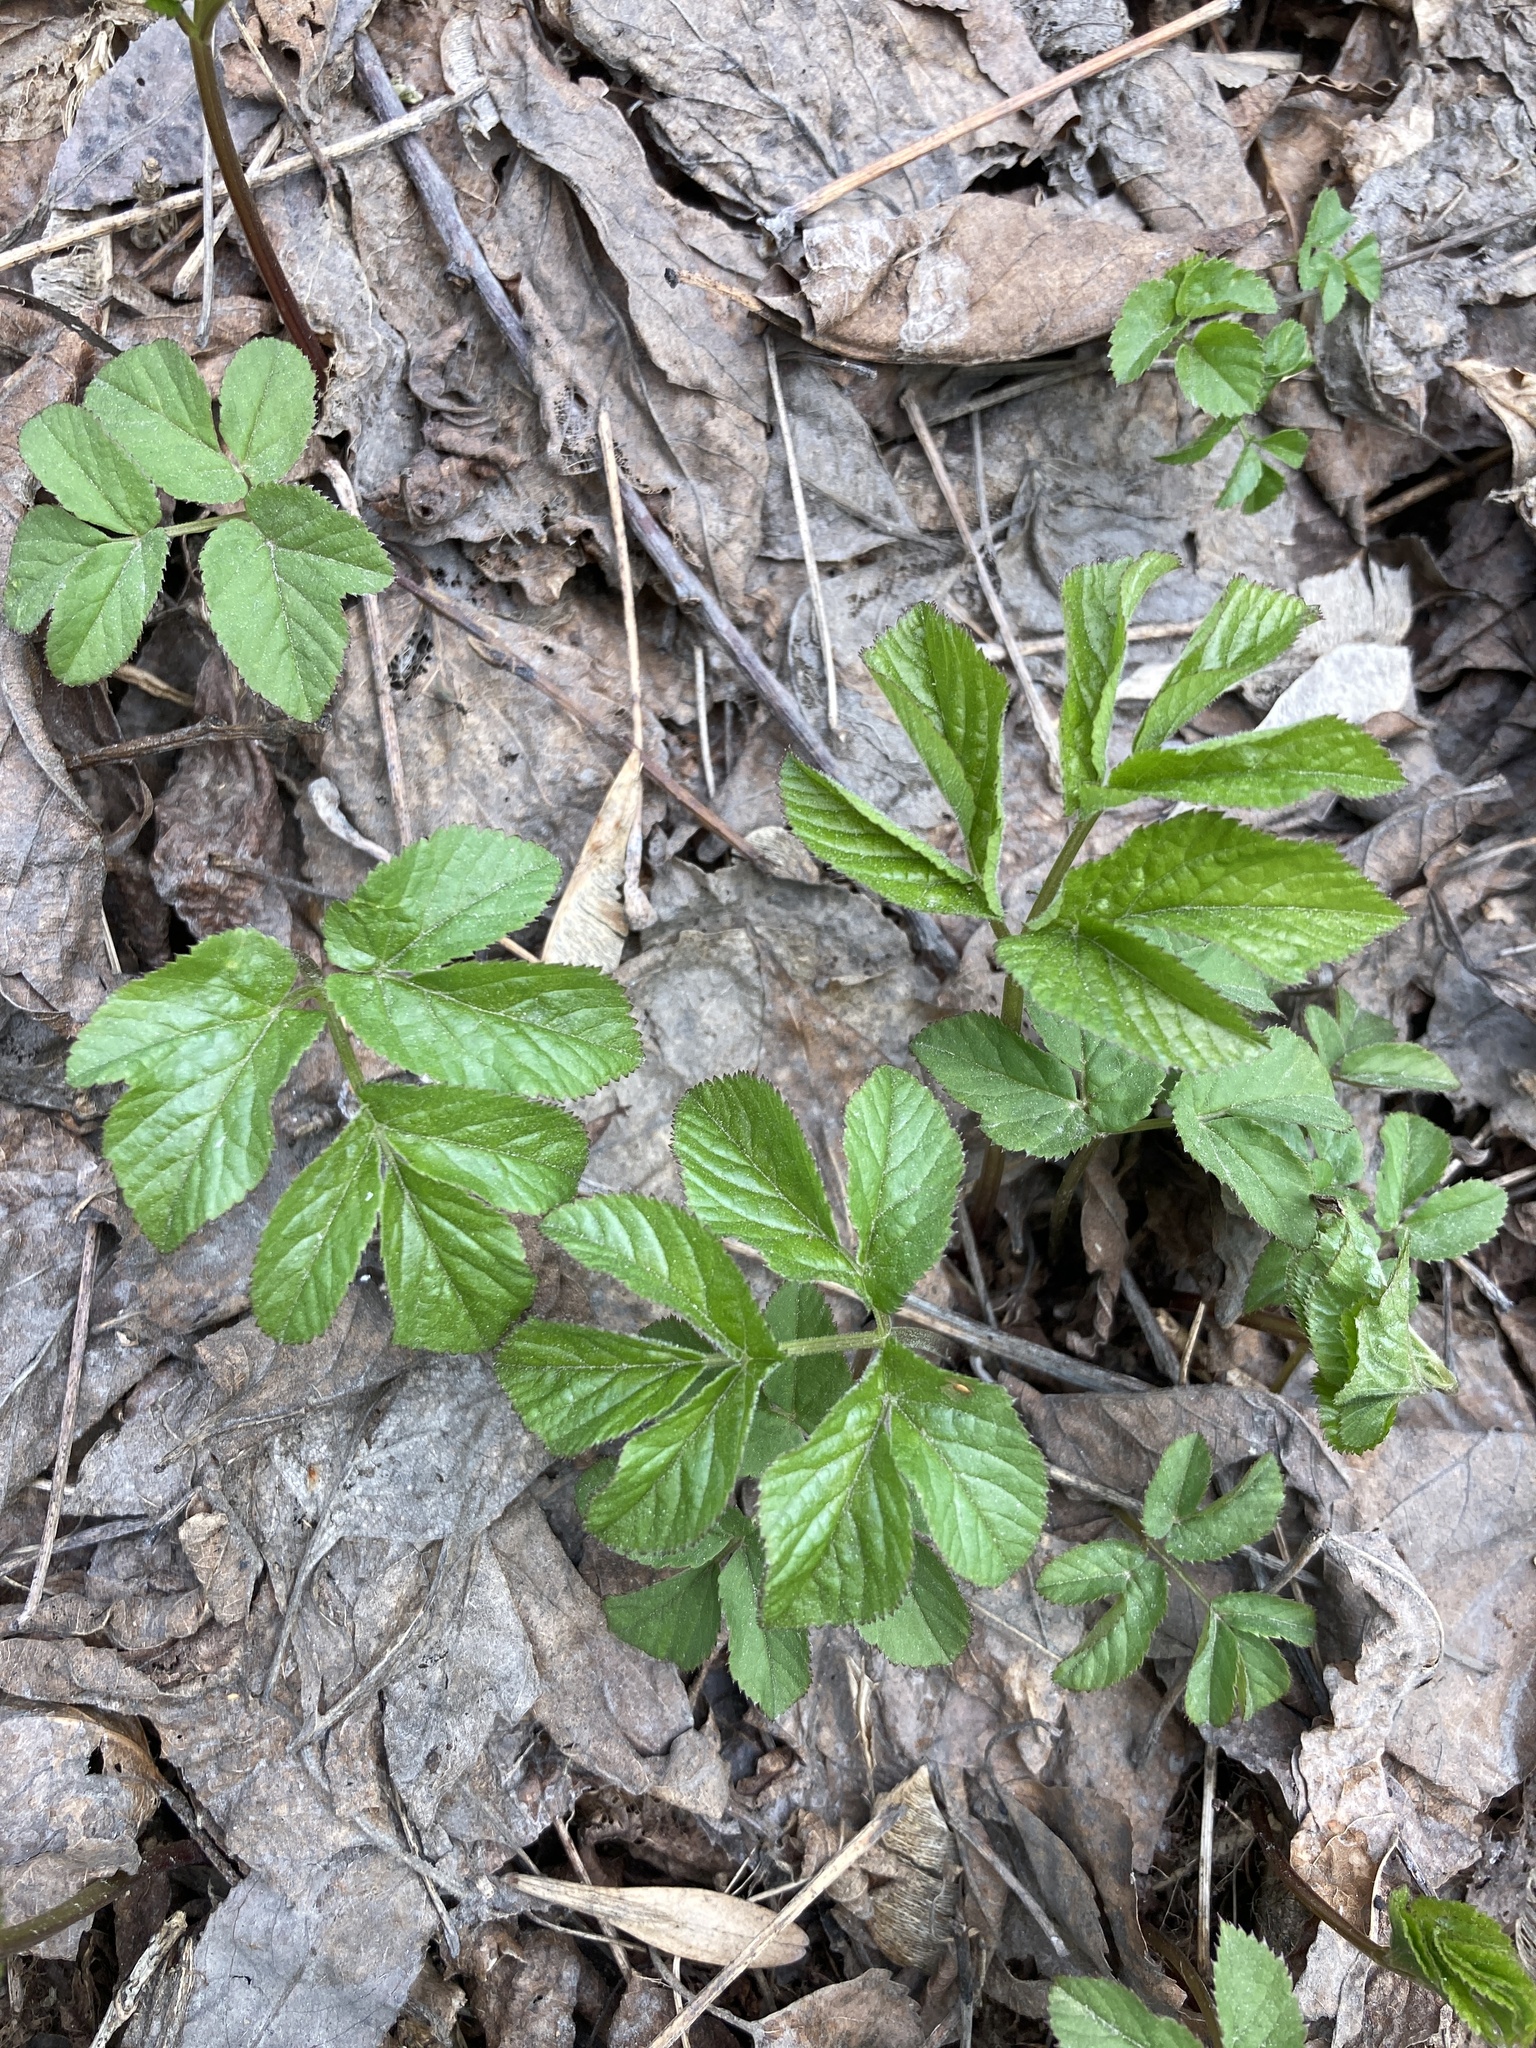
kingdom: Plantae
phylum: Tracheophyta
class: Magnoliopsida
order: Apiales
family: Apiaceae
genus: Aegopodium
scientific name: Aegopodium podagraria
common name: Ground-elder
